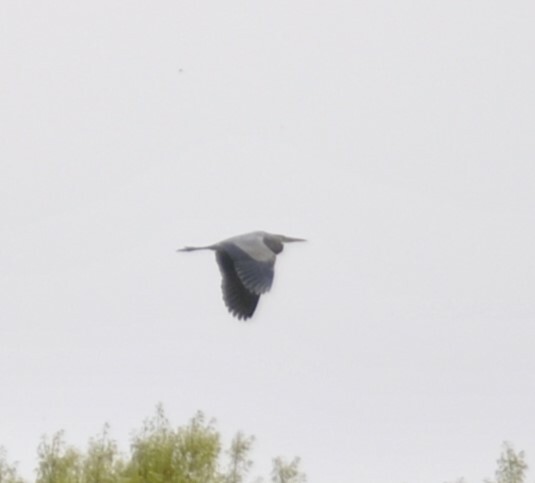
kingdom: Animalia
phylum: Chordata
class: Aves
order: Pelecaniformes
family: Ardeidae
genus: Ardea
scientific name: Ardea herodias
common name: Great blue heron
